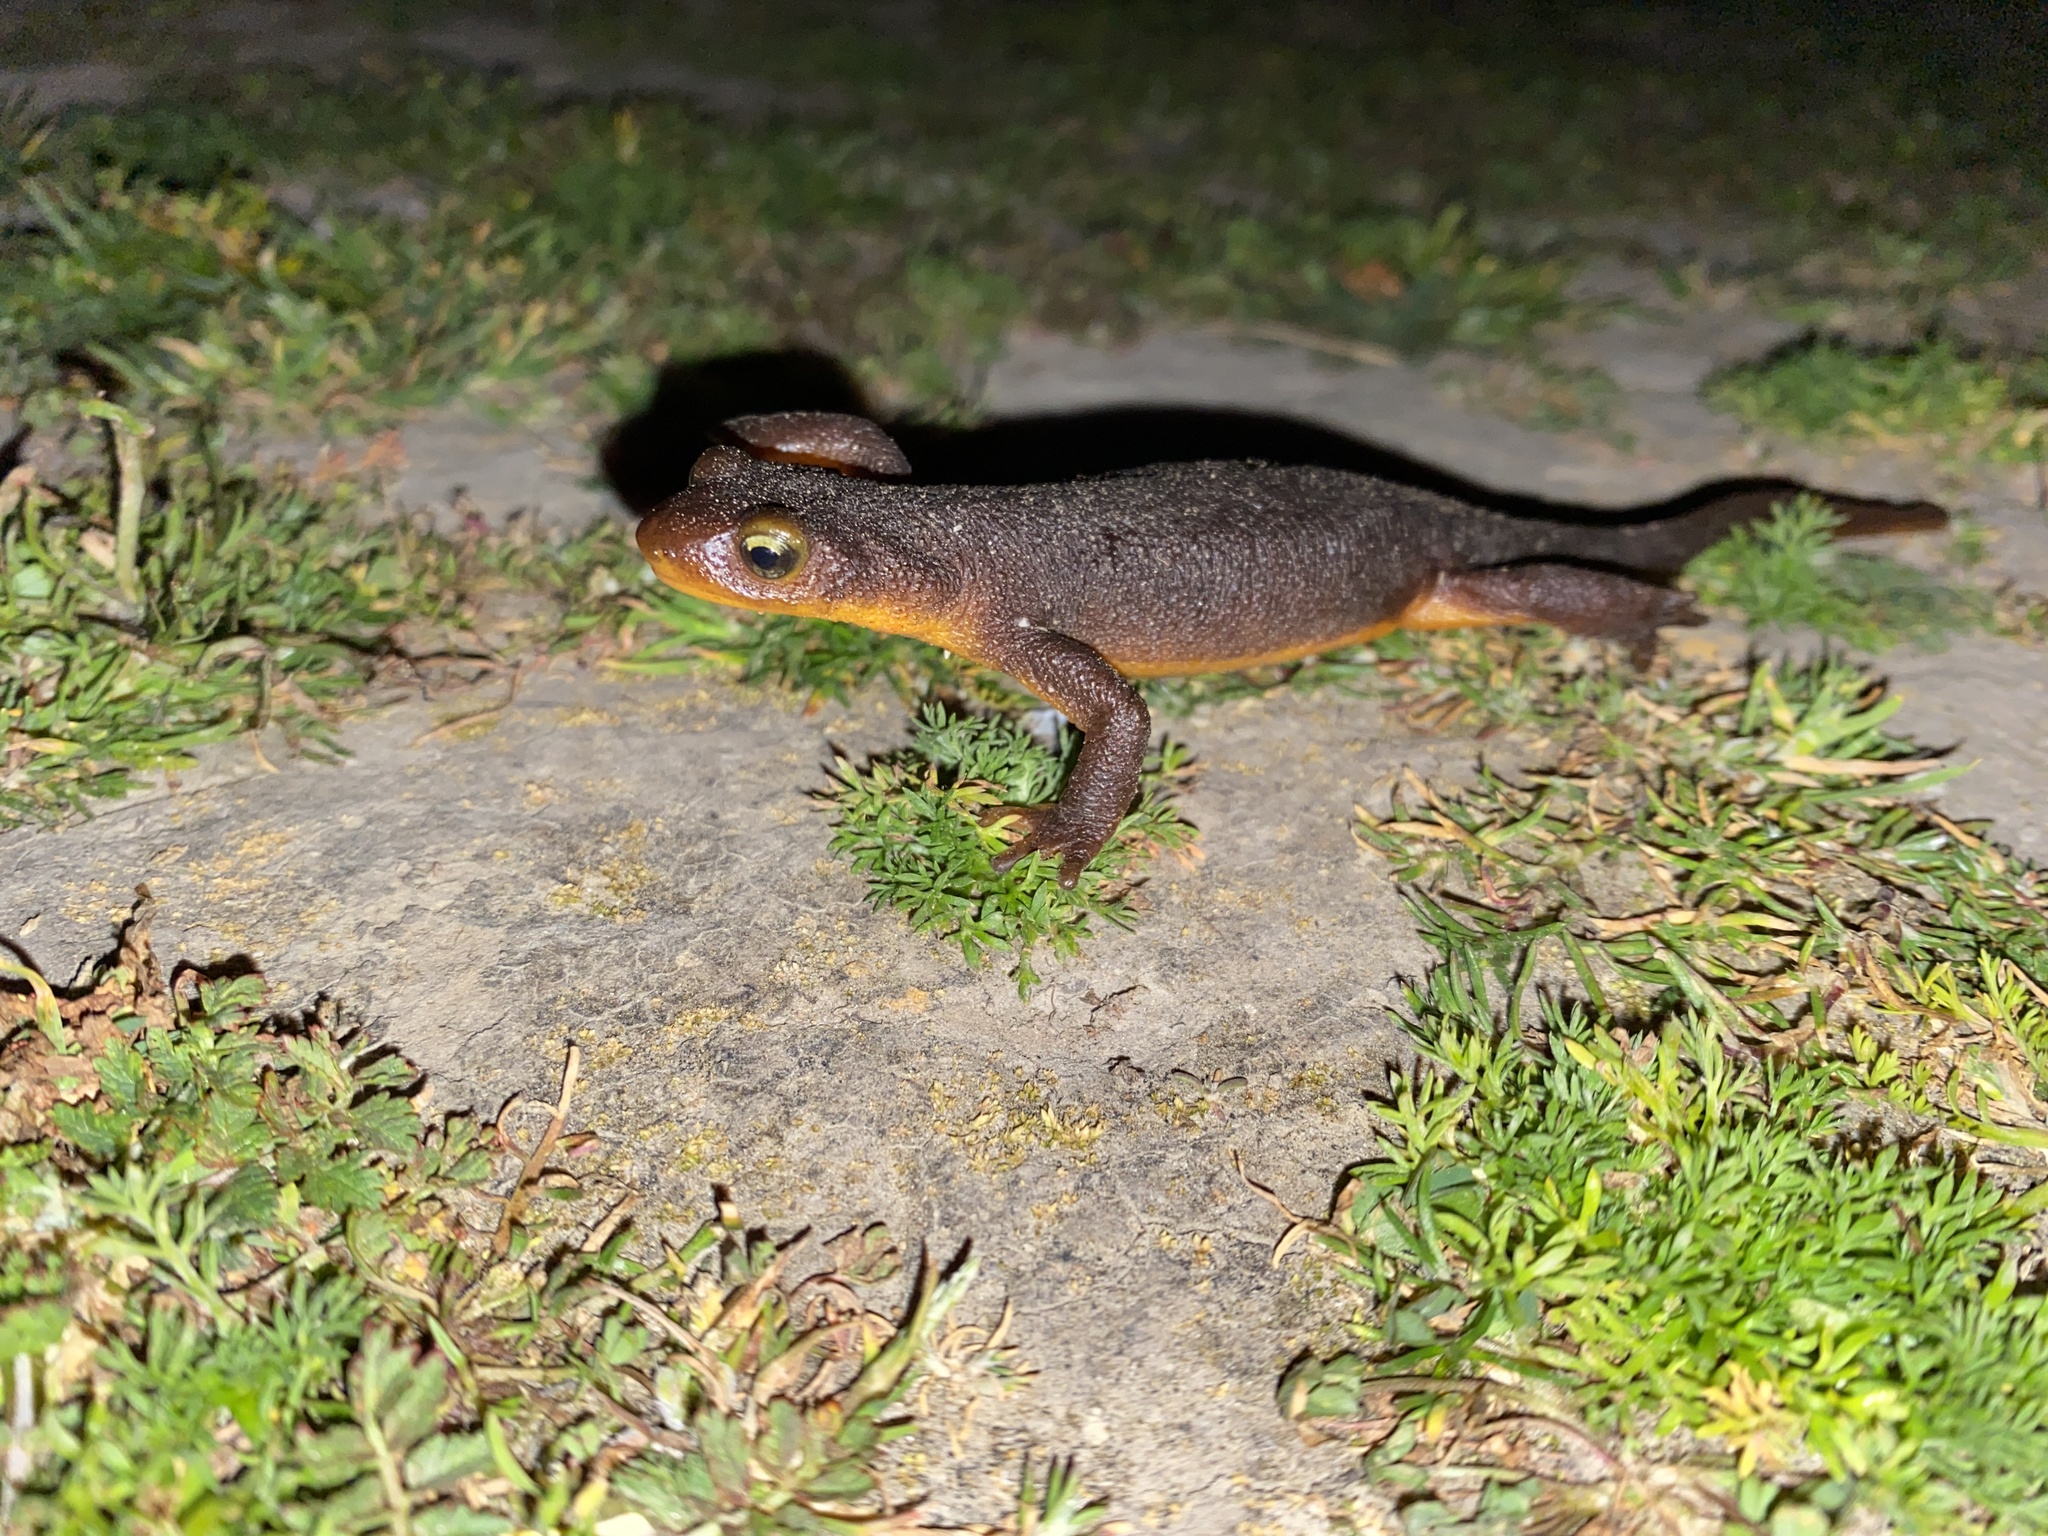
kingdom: Animalia
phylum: Chordata
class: Amphibia
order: Caudata
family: Salamandridae
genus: Taricha
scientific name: Taricha torosa
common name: California newt
